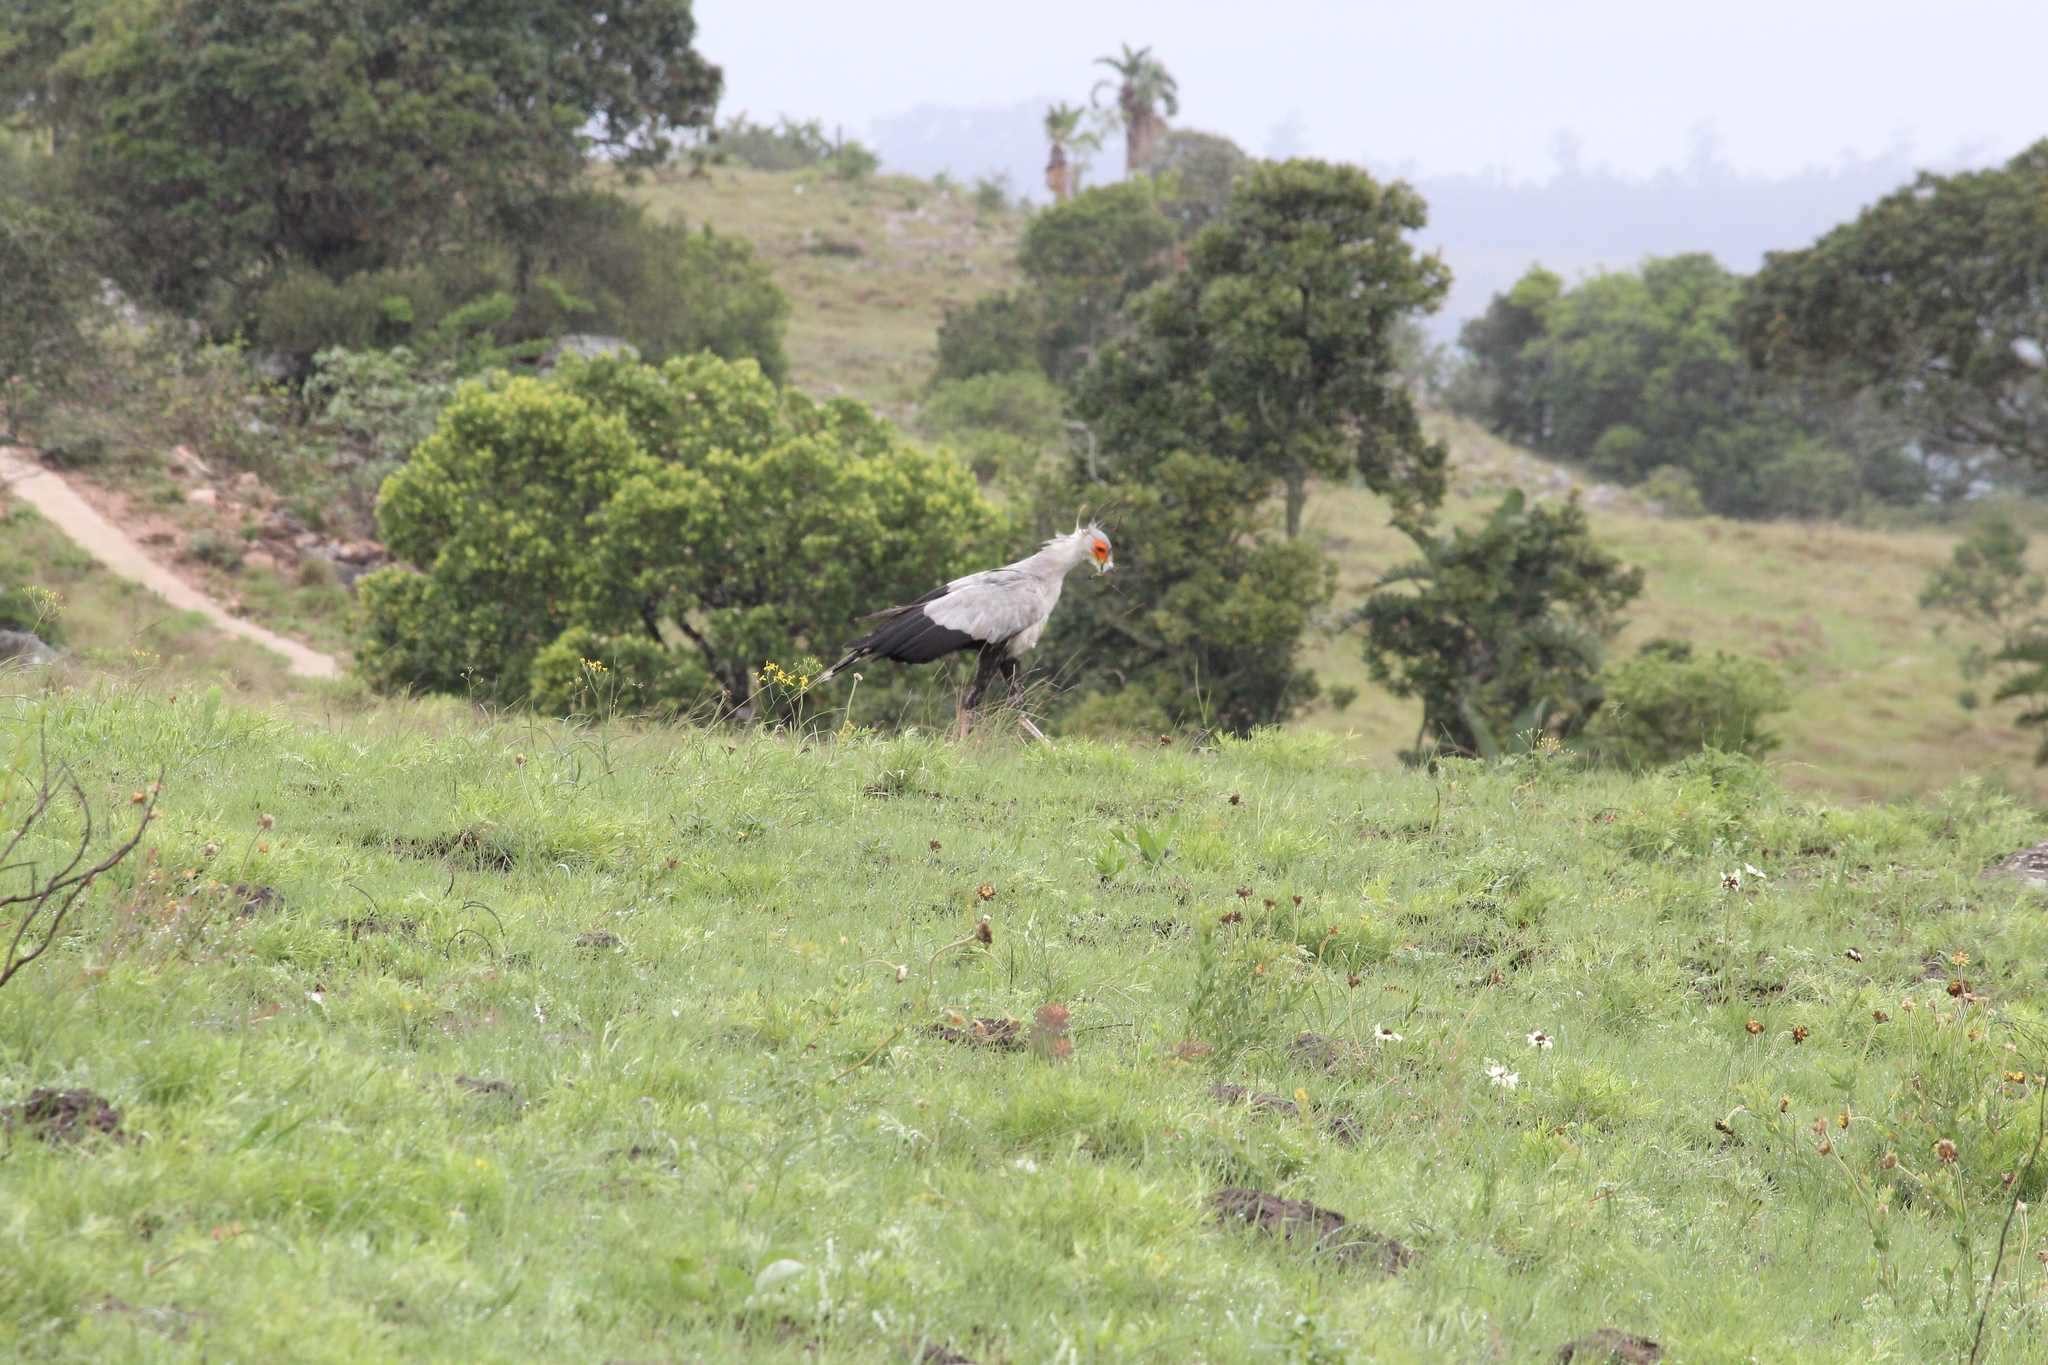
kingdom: Animalia
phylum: Chordata
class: Aves
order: Accipitriformes
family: Sagittariidae
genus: Sagittarius
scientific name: Sagittarius serpentarius
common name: Secretarybird
